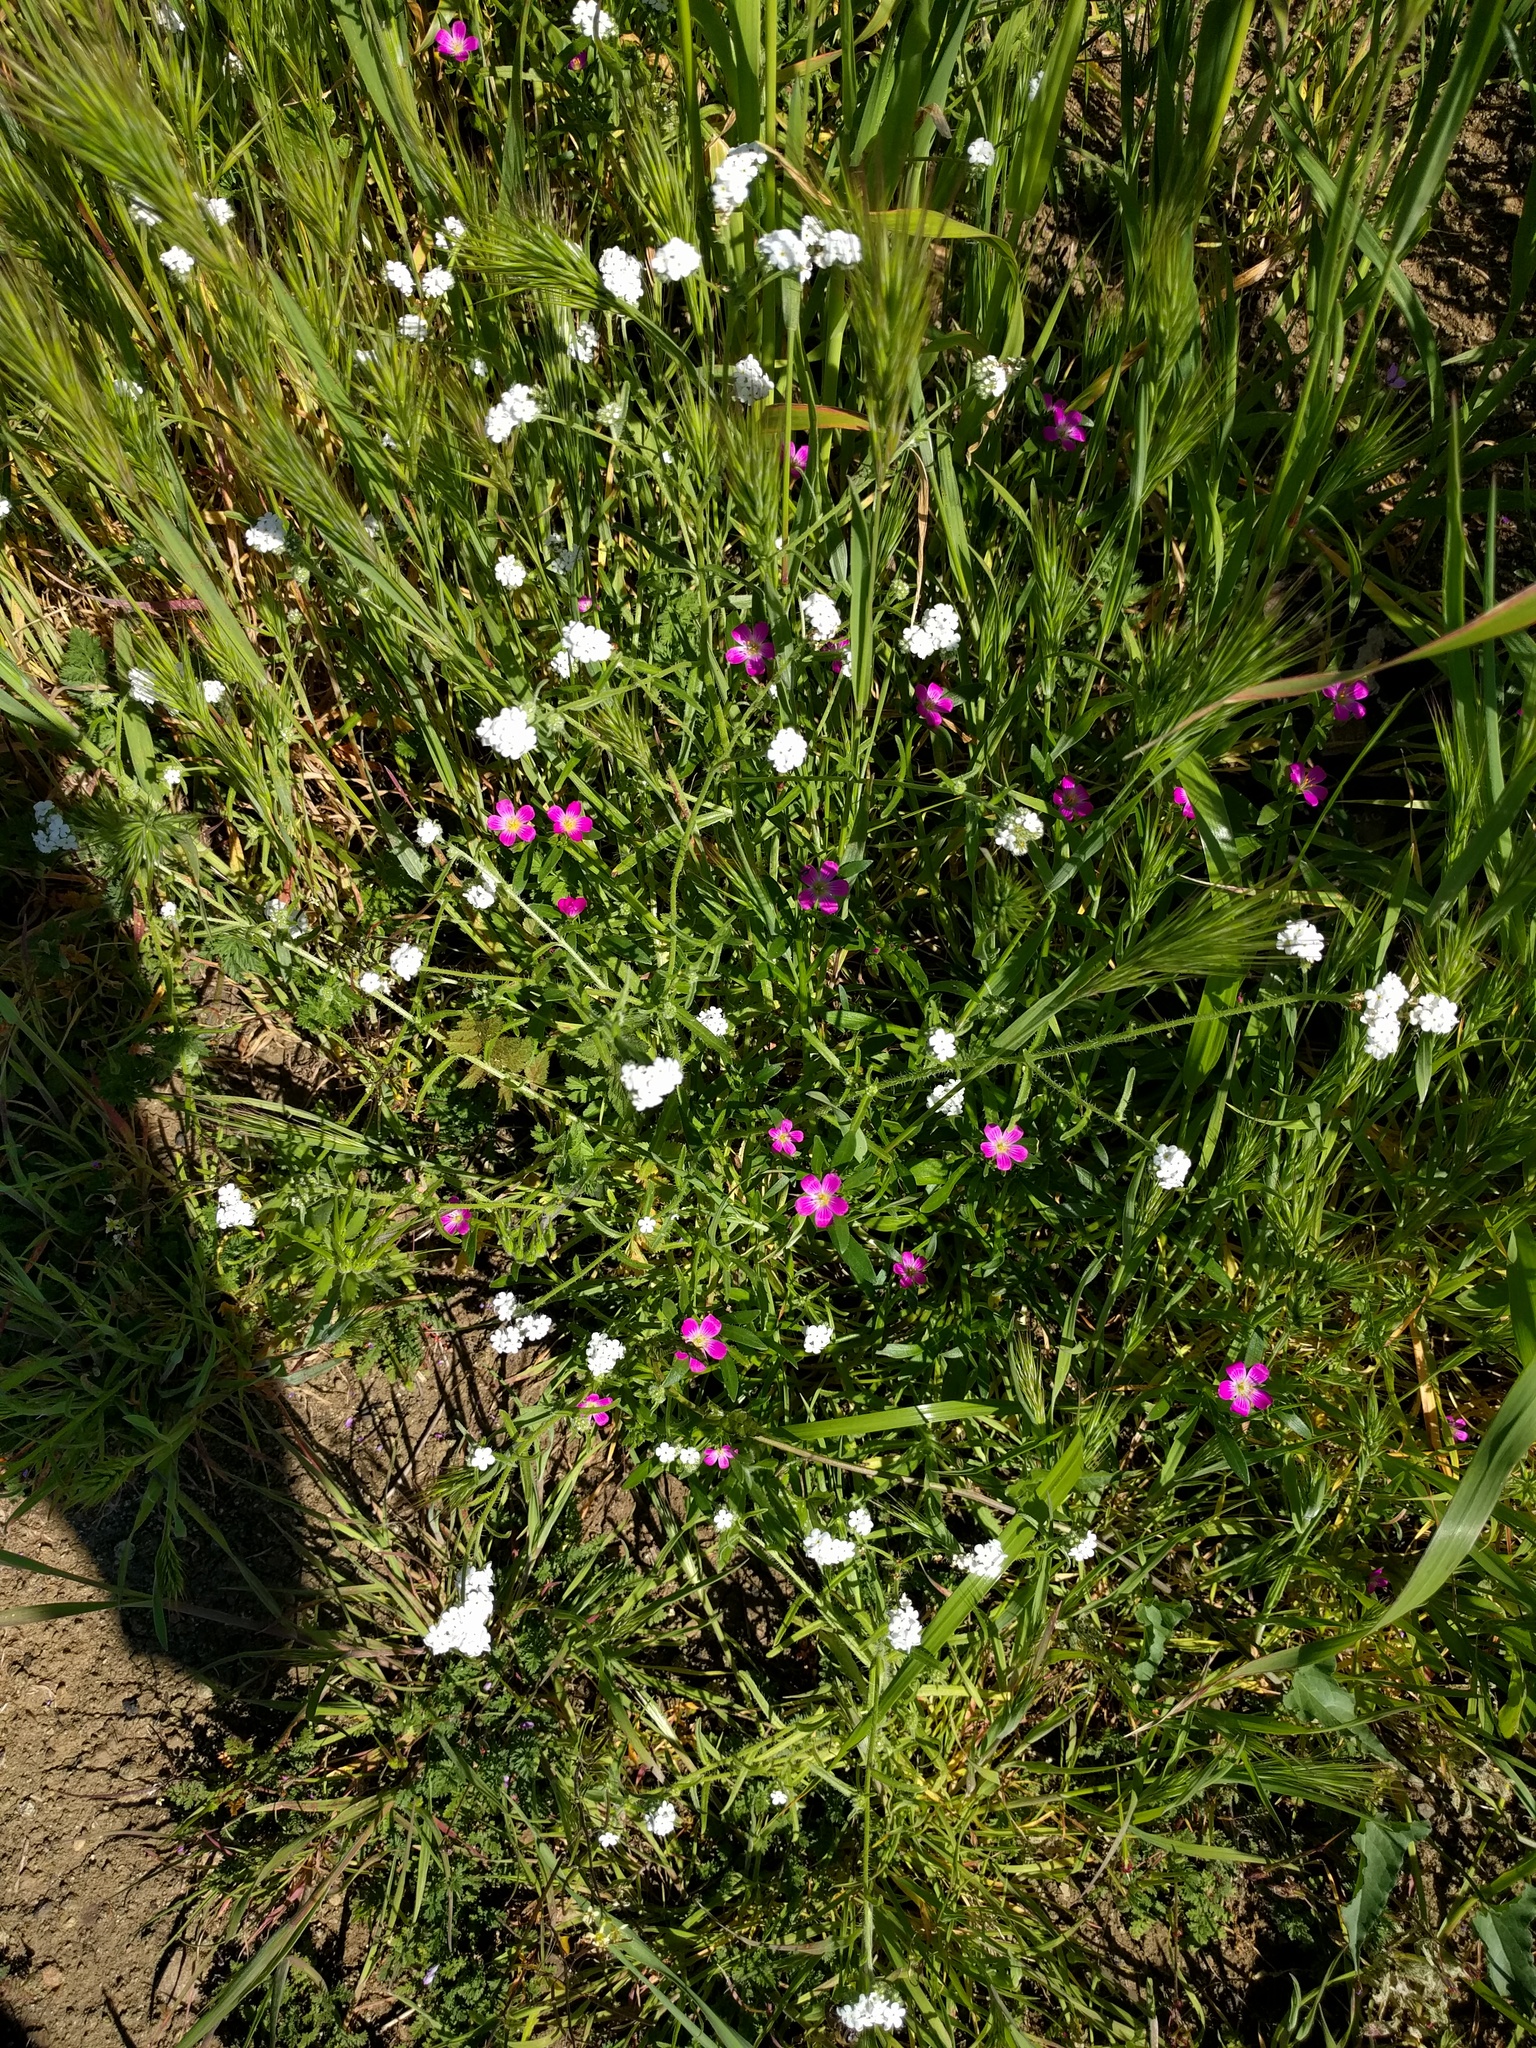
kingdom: Plantae
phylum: Tracheophyta
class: Magnoliopsida
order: Caryophyllales
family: Montiaceae
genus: Calandrinia
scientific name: Calandrinia menziesii
